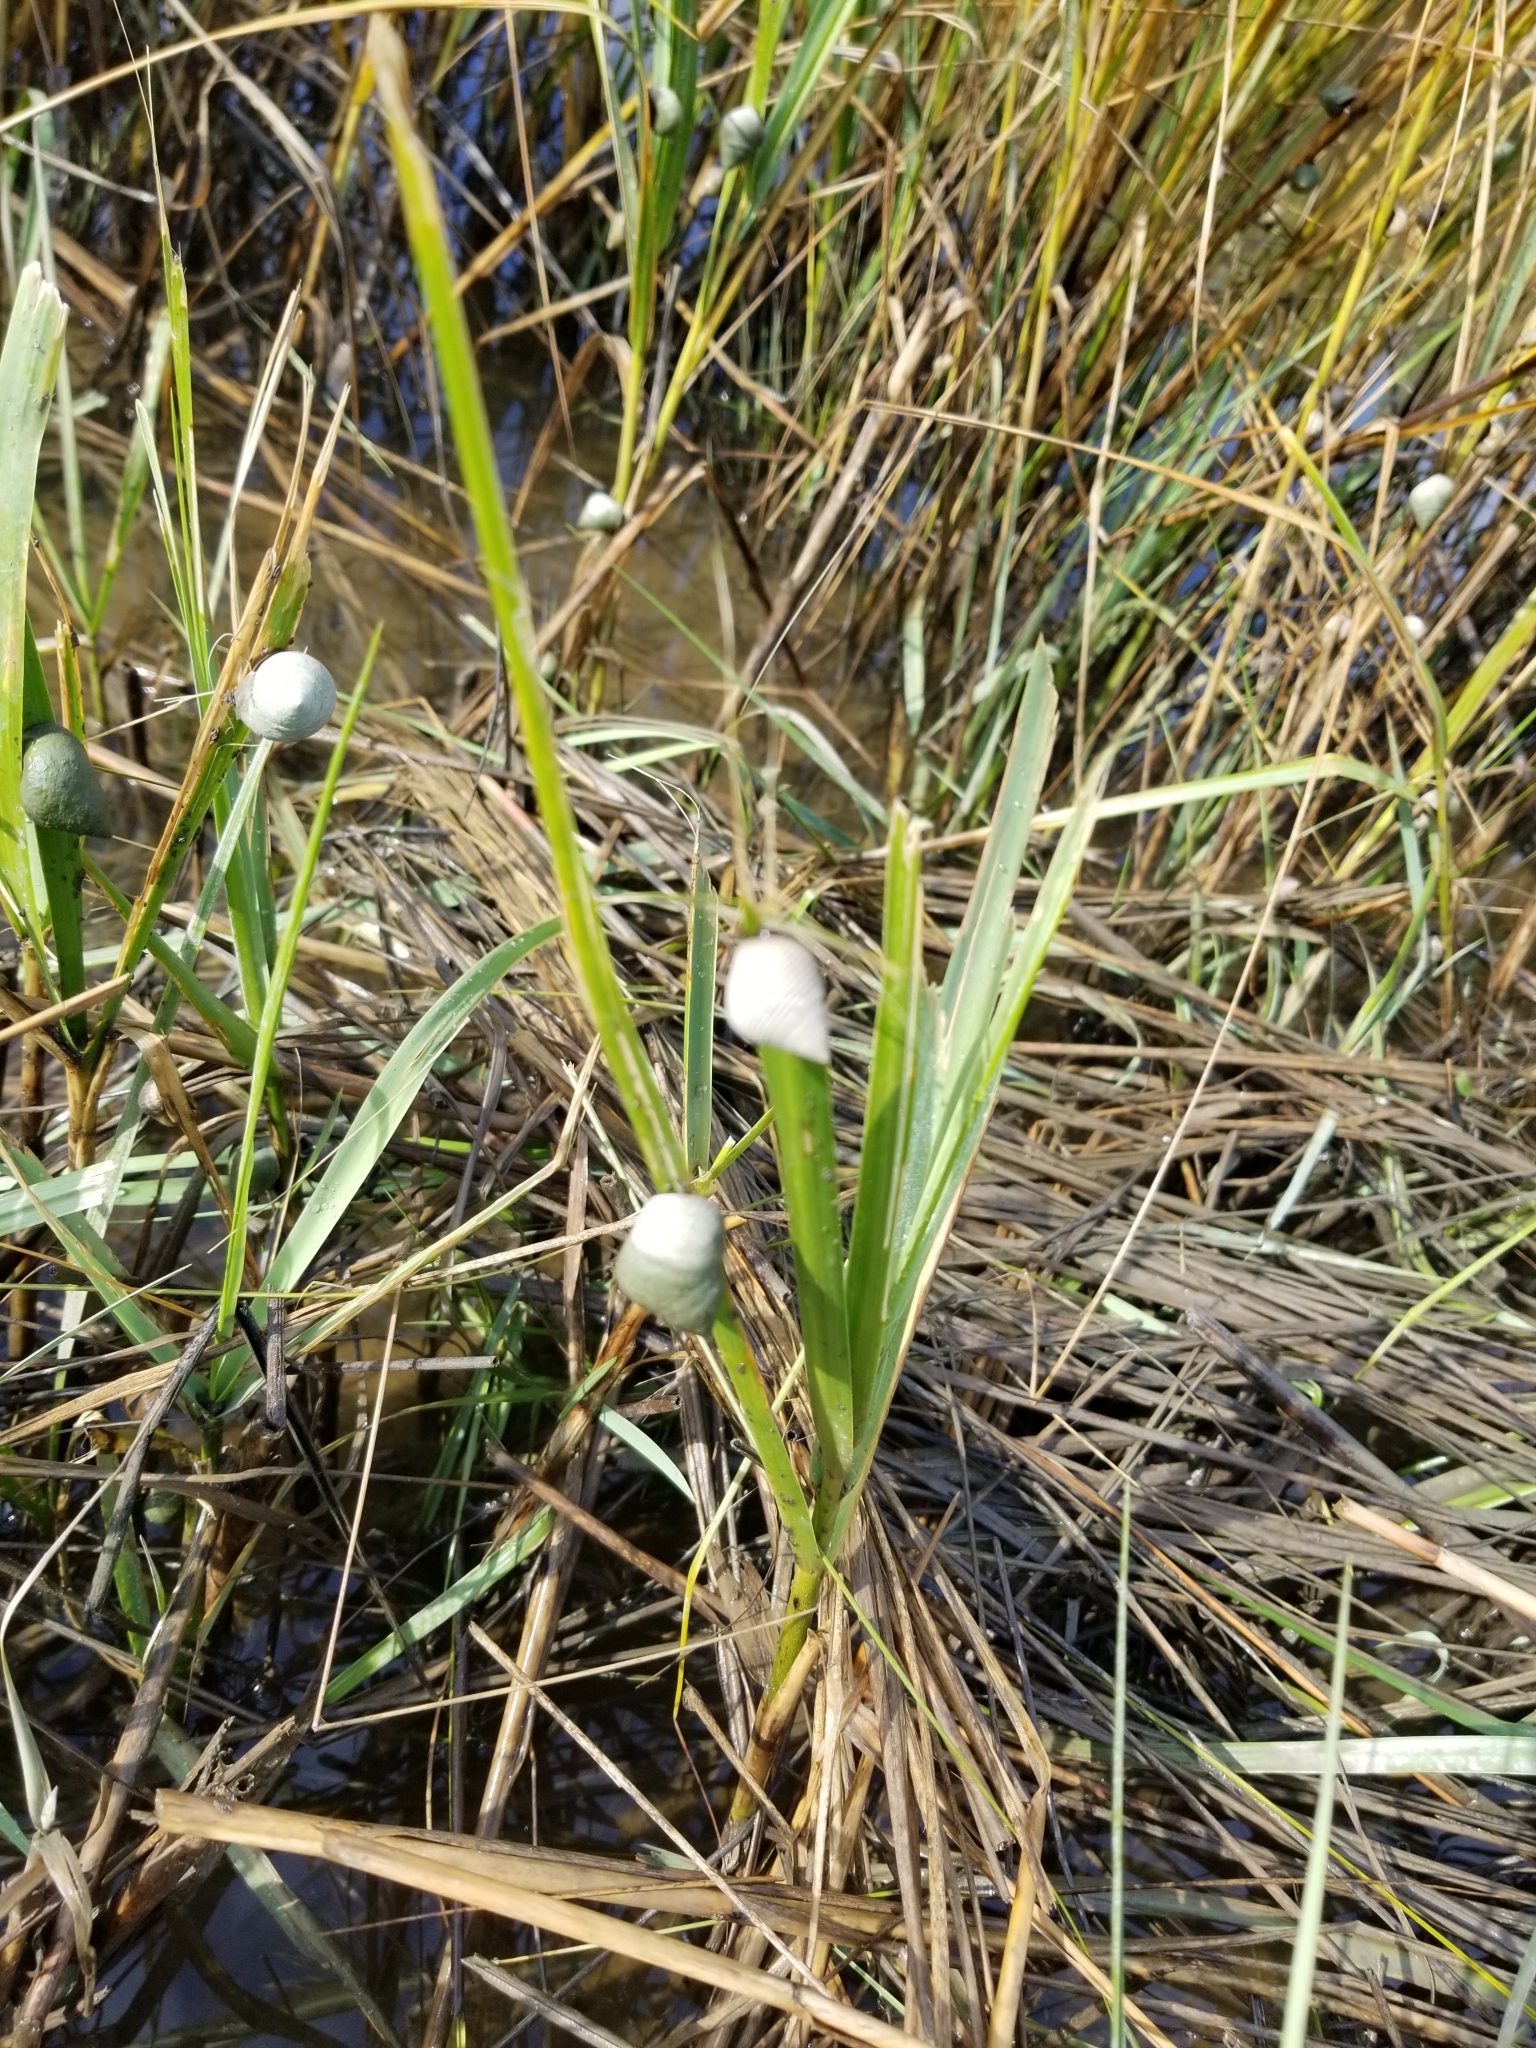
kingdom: Animalia
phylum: Mollusca
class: Gastropoda
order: Littorinimorpha
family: Littorinidae
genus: Littoraria
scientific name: Littoraria irrorata
